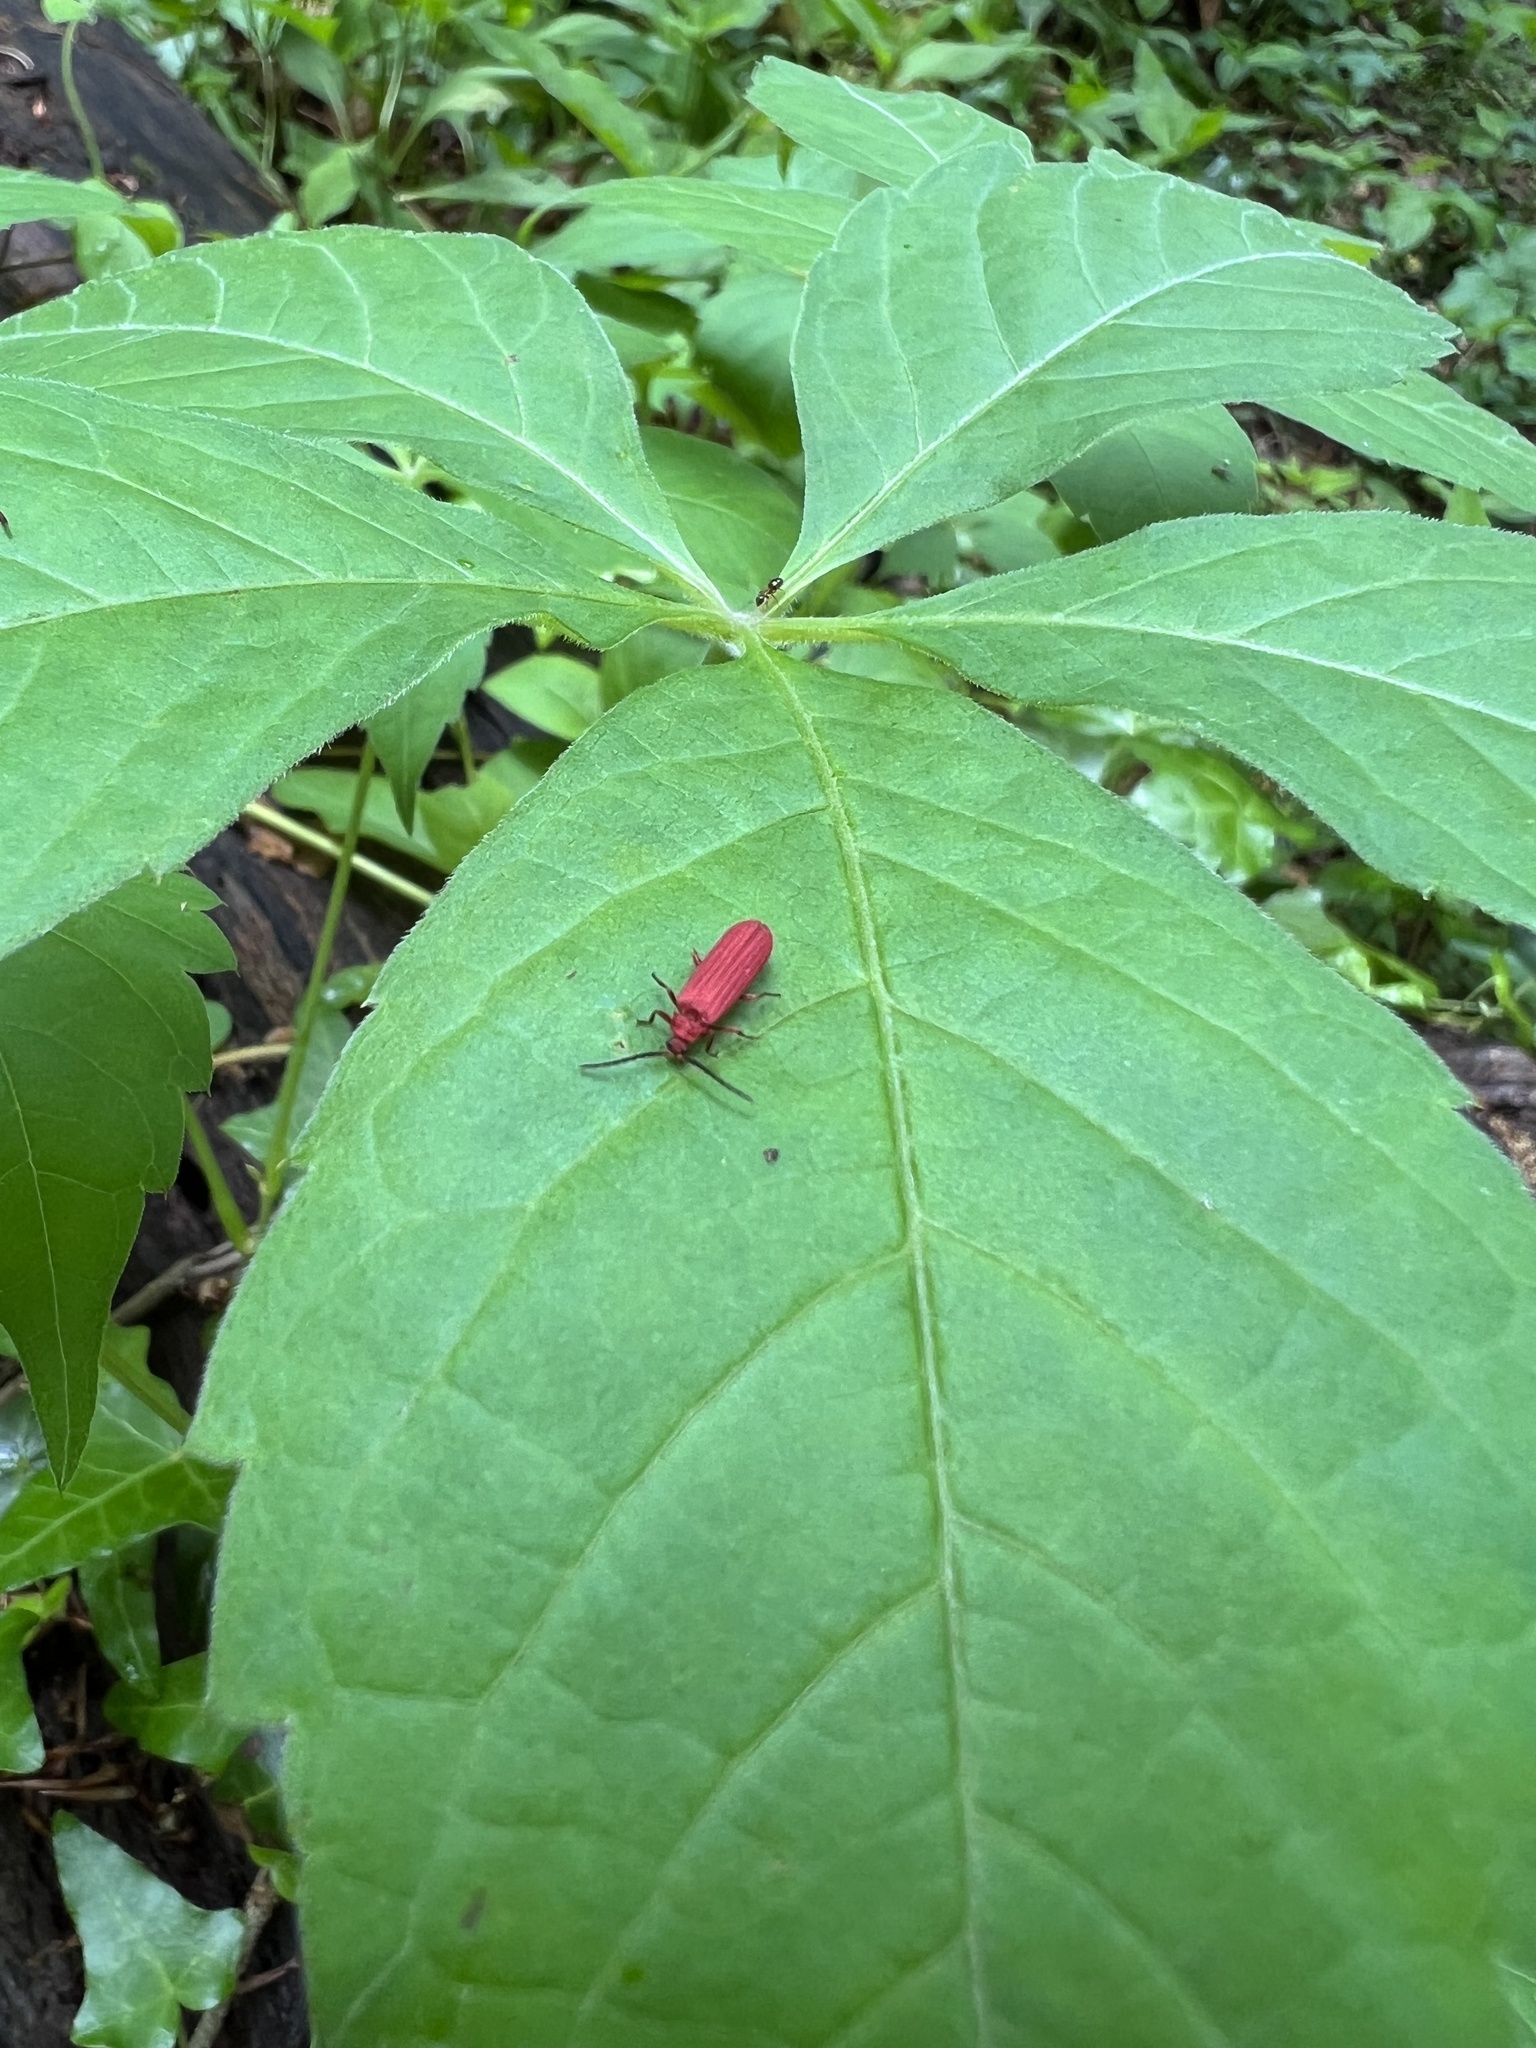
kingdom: Animalia
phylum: Arthropoda
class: Insecta
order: Coleoptera
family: Lycidae
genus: Punicealis
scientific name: Punicealis
